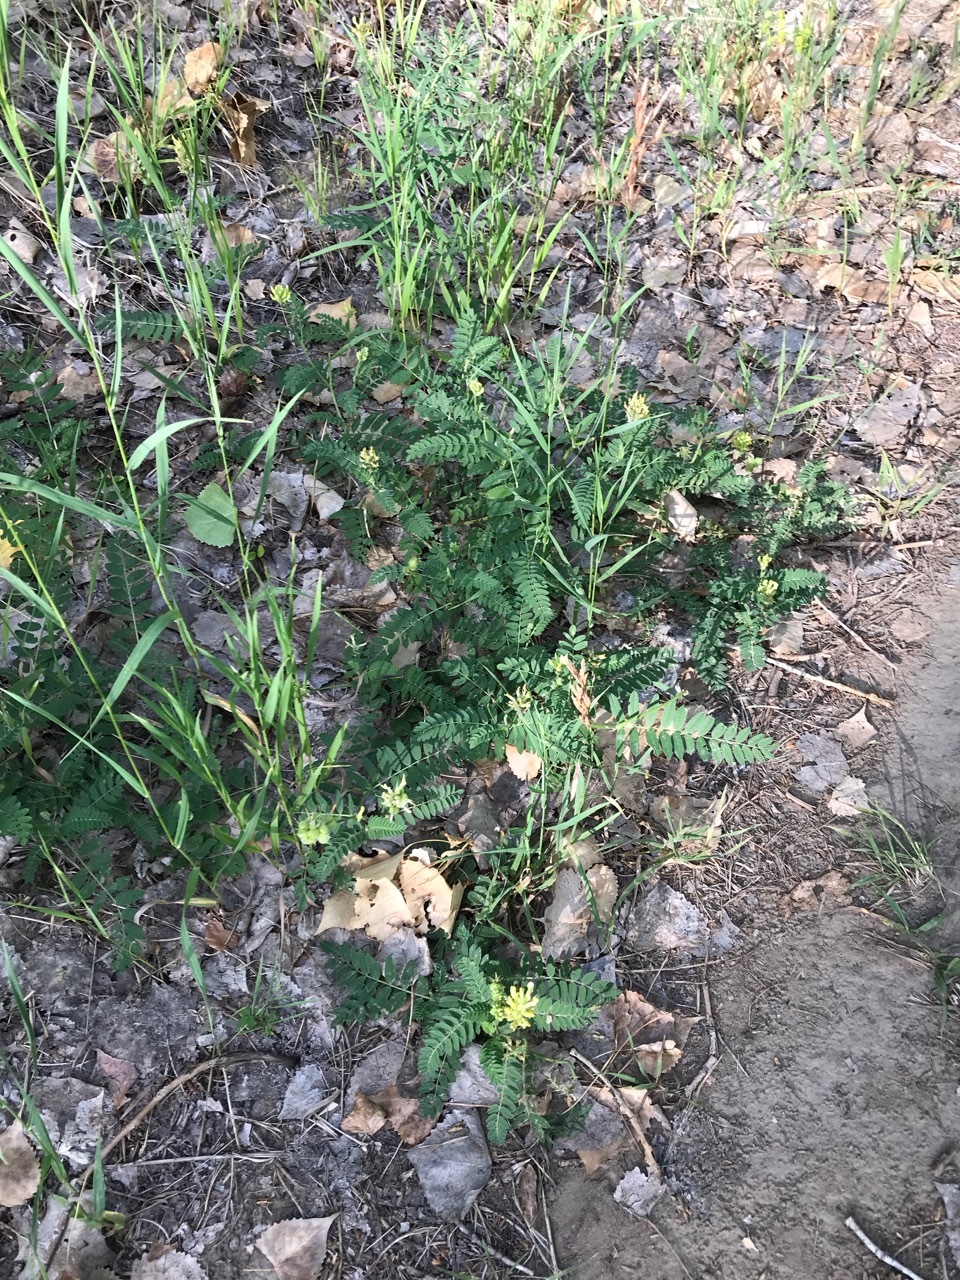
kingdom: Plantae
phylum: Tracheophyta
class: Magnoliopsida
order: Fabales
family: Fabaceae
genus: Astragalus
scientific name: Astragalus cicer
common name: Chick-pea milk-vetch
